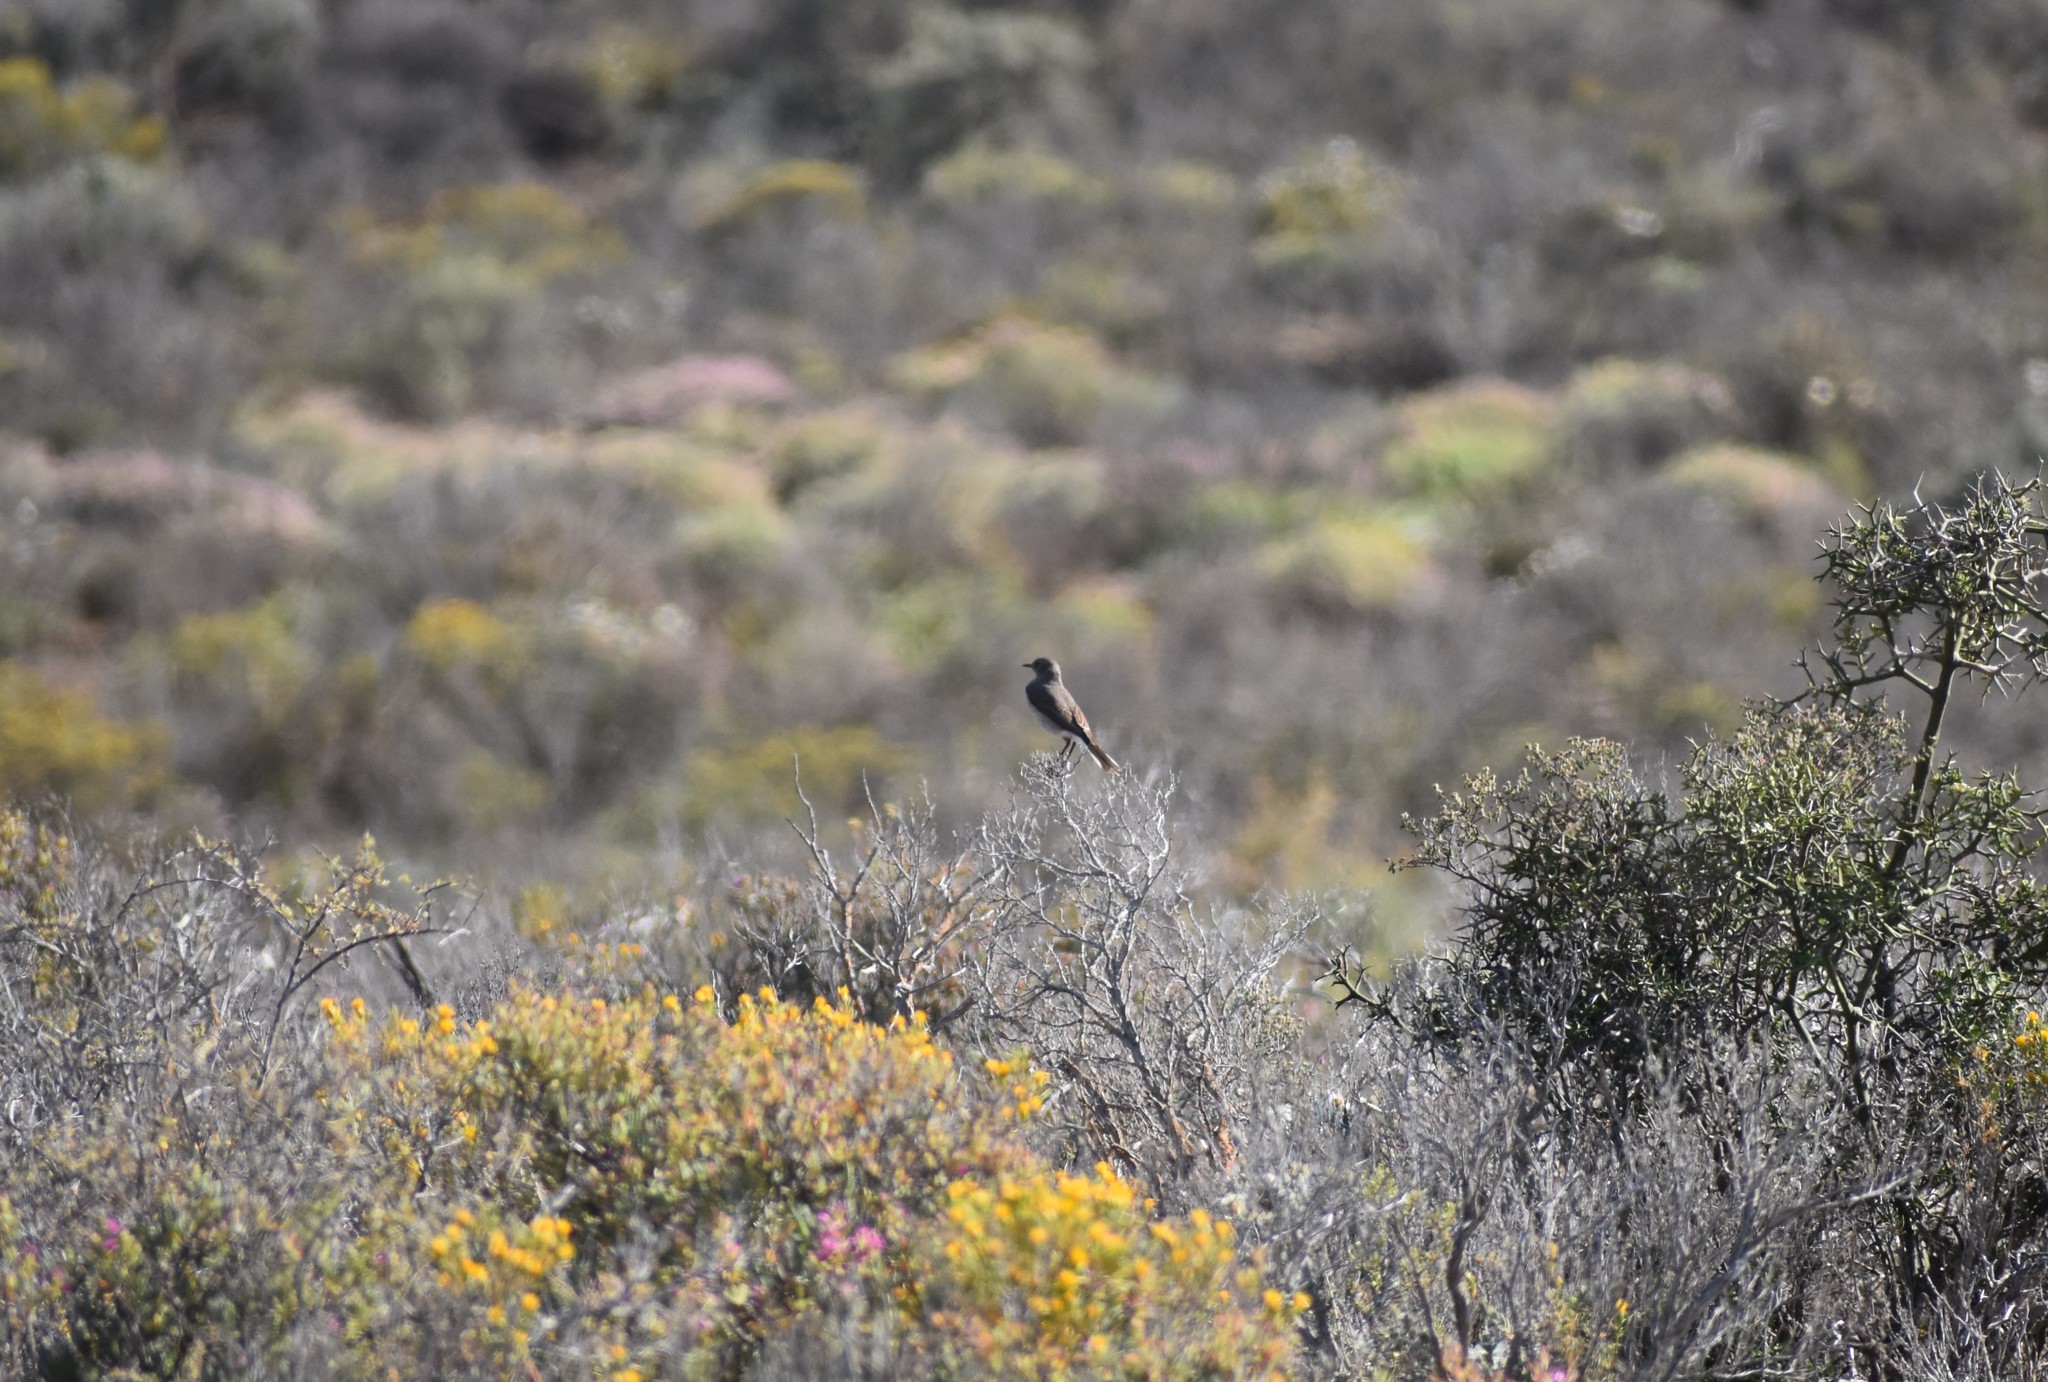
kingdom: Animalia
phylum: Chordata
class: Aves
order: Passeriformes
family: Muscicapidae
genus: Emarginata
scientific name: Emarginata schlegelii
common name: Karoo chat
